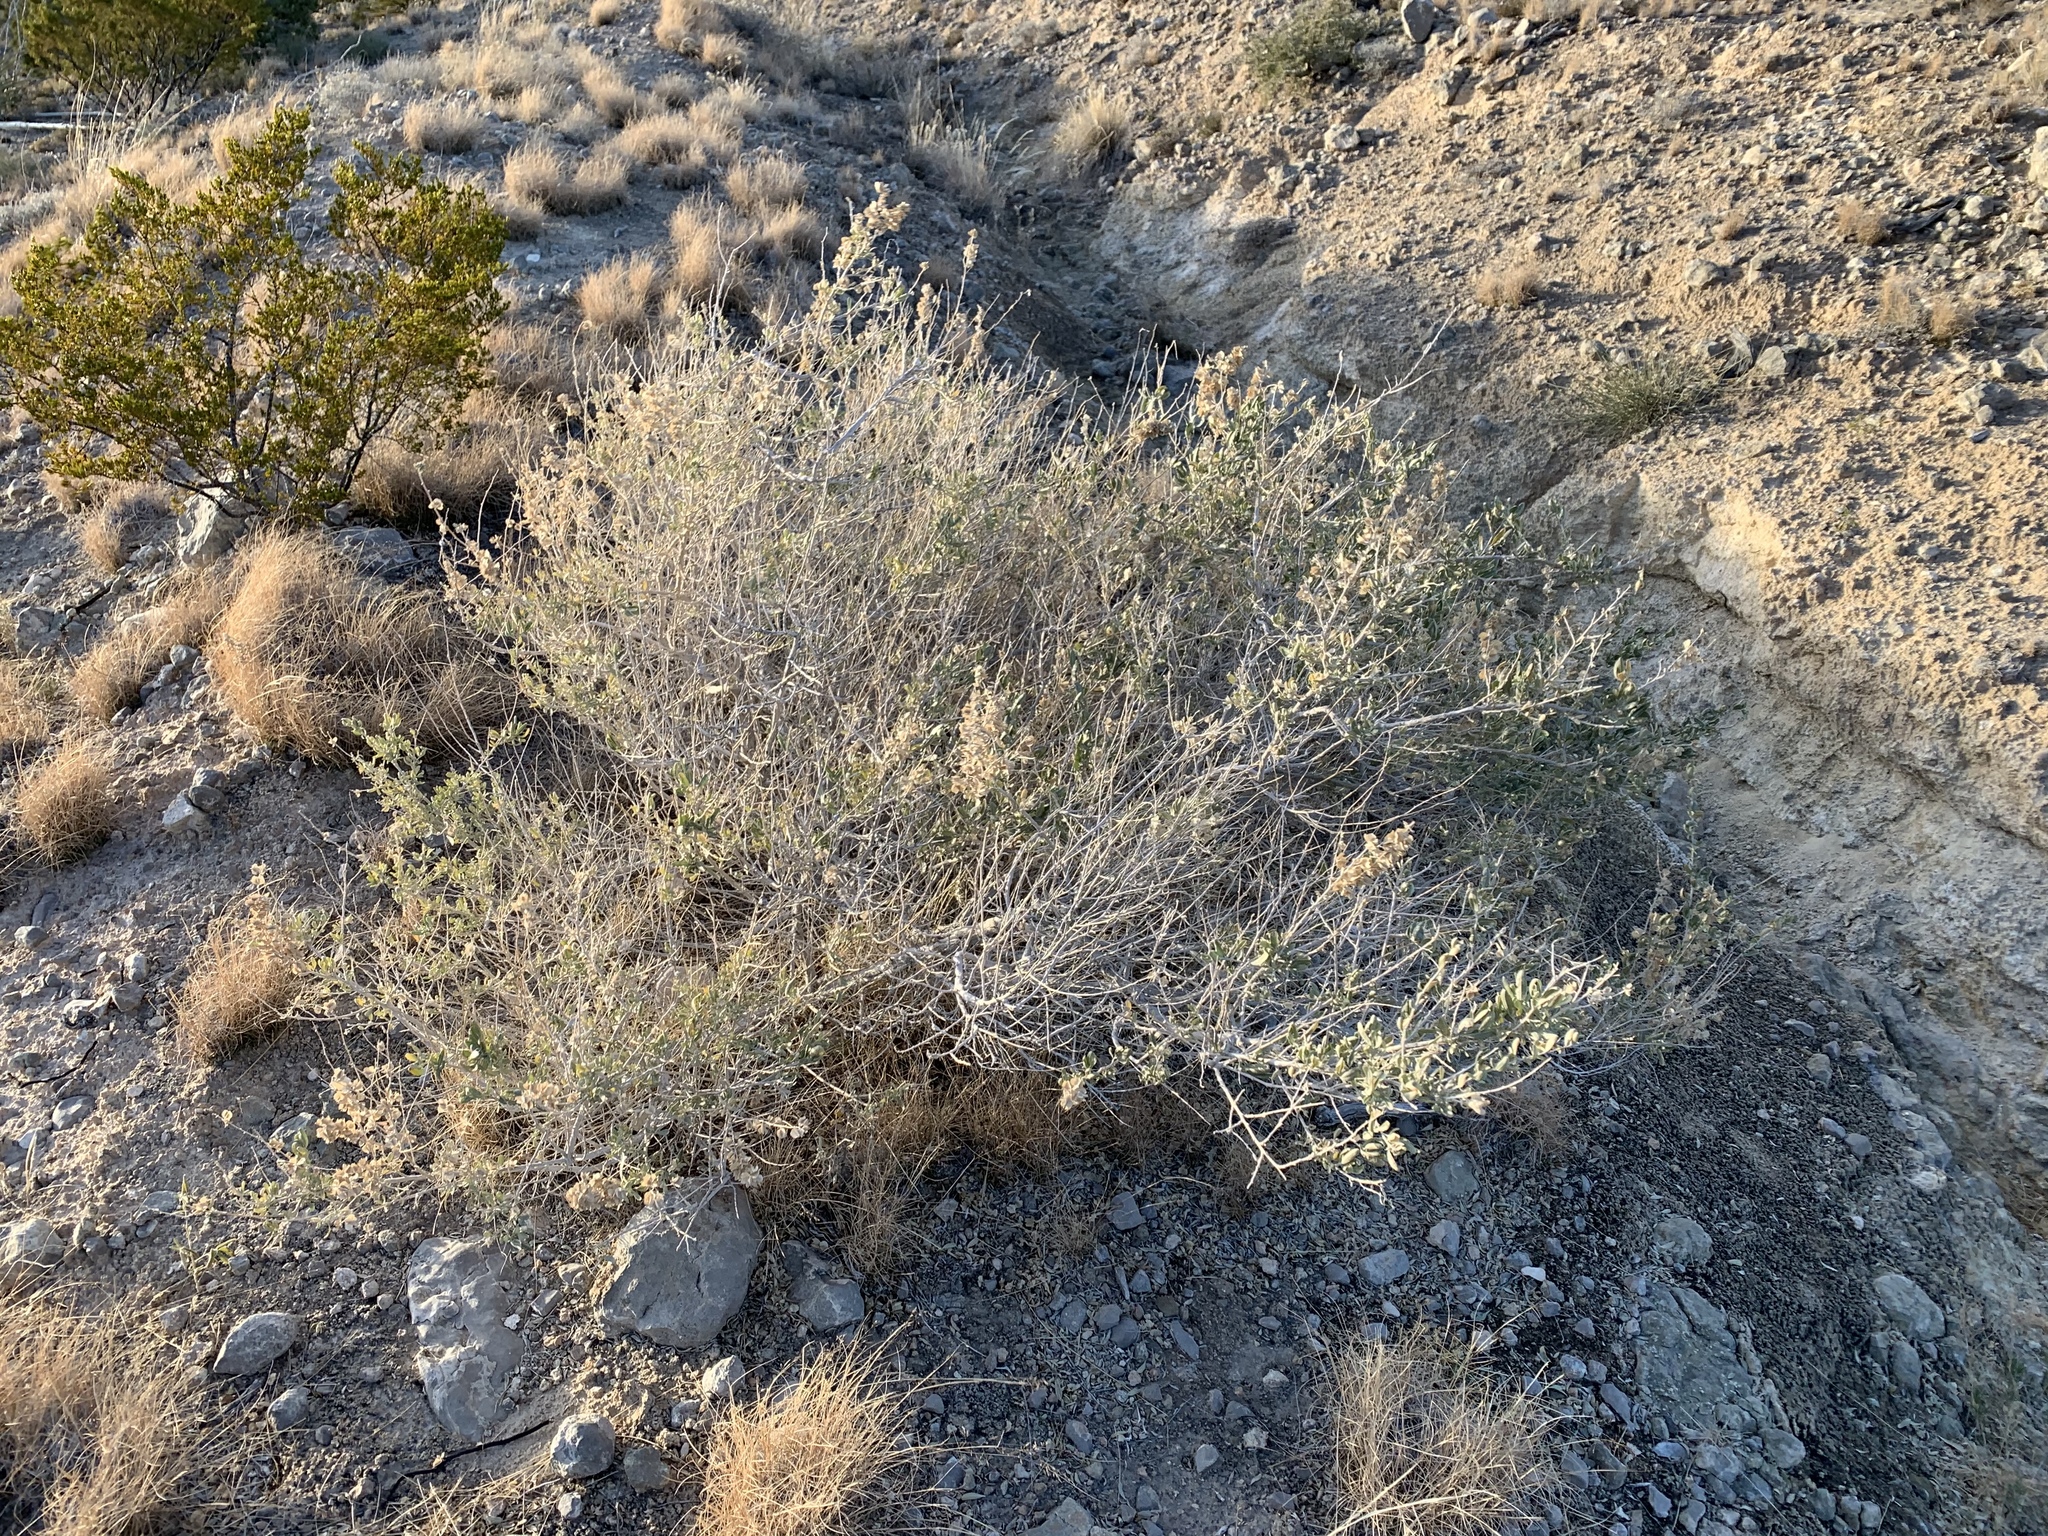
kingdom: Plantae
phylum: Tracheophyta
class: Magnoliopsida
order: Caryophyllales
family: Amaranthaceae
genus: Atriplex
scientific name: Atriplex canescens
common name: Four-wing saltbush
